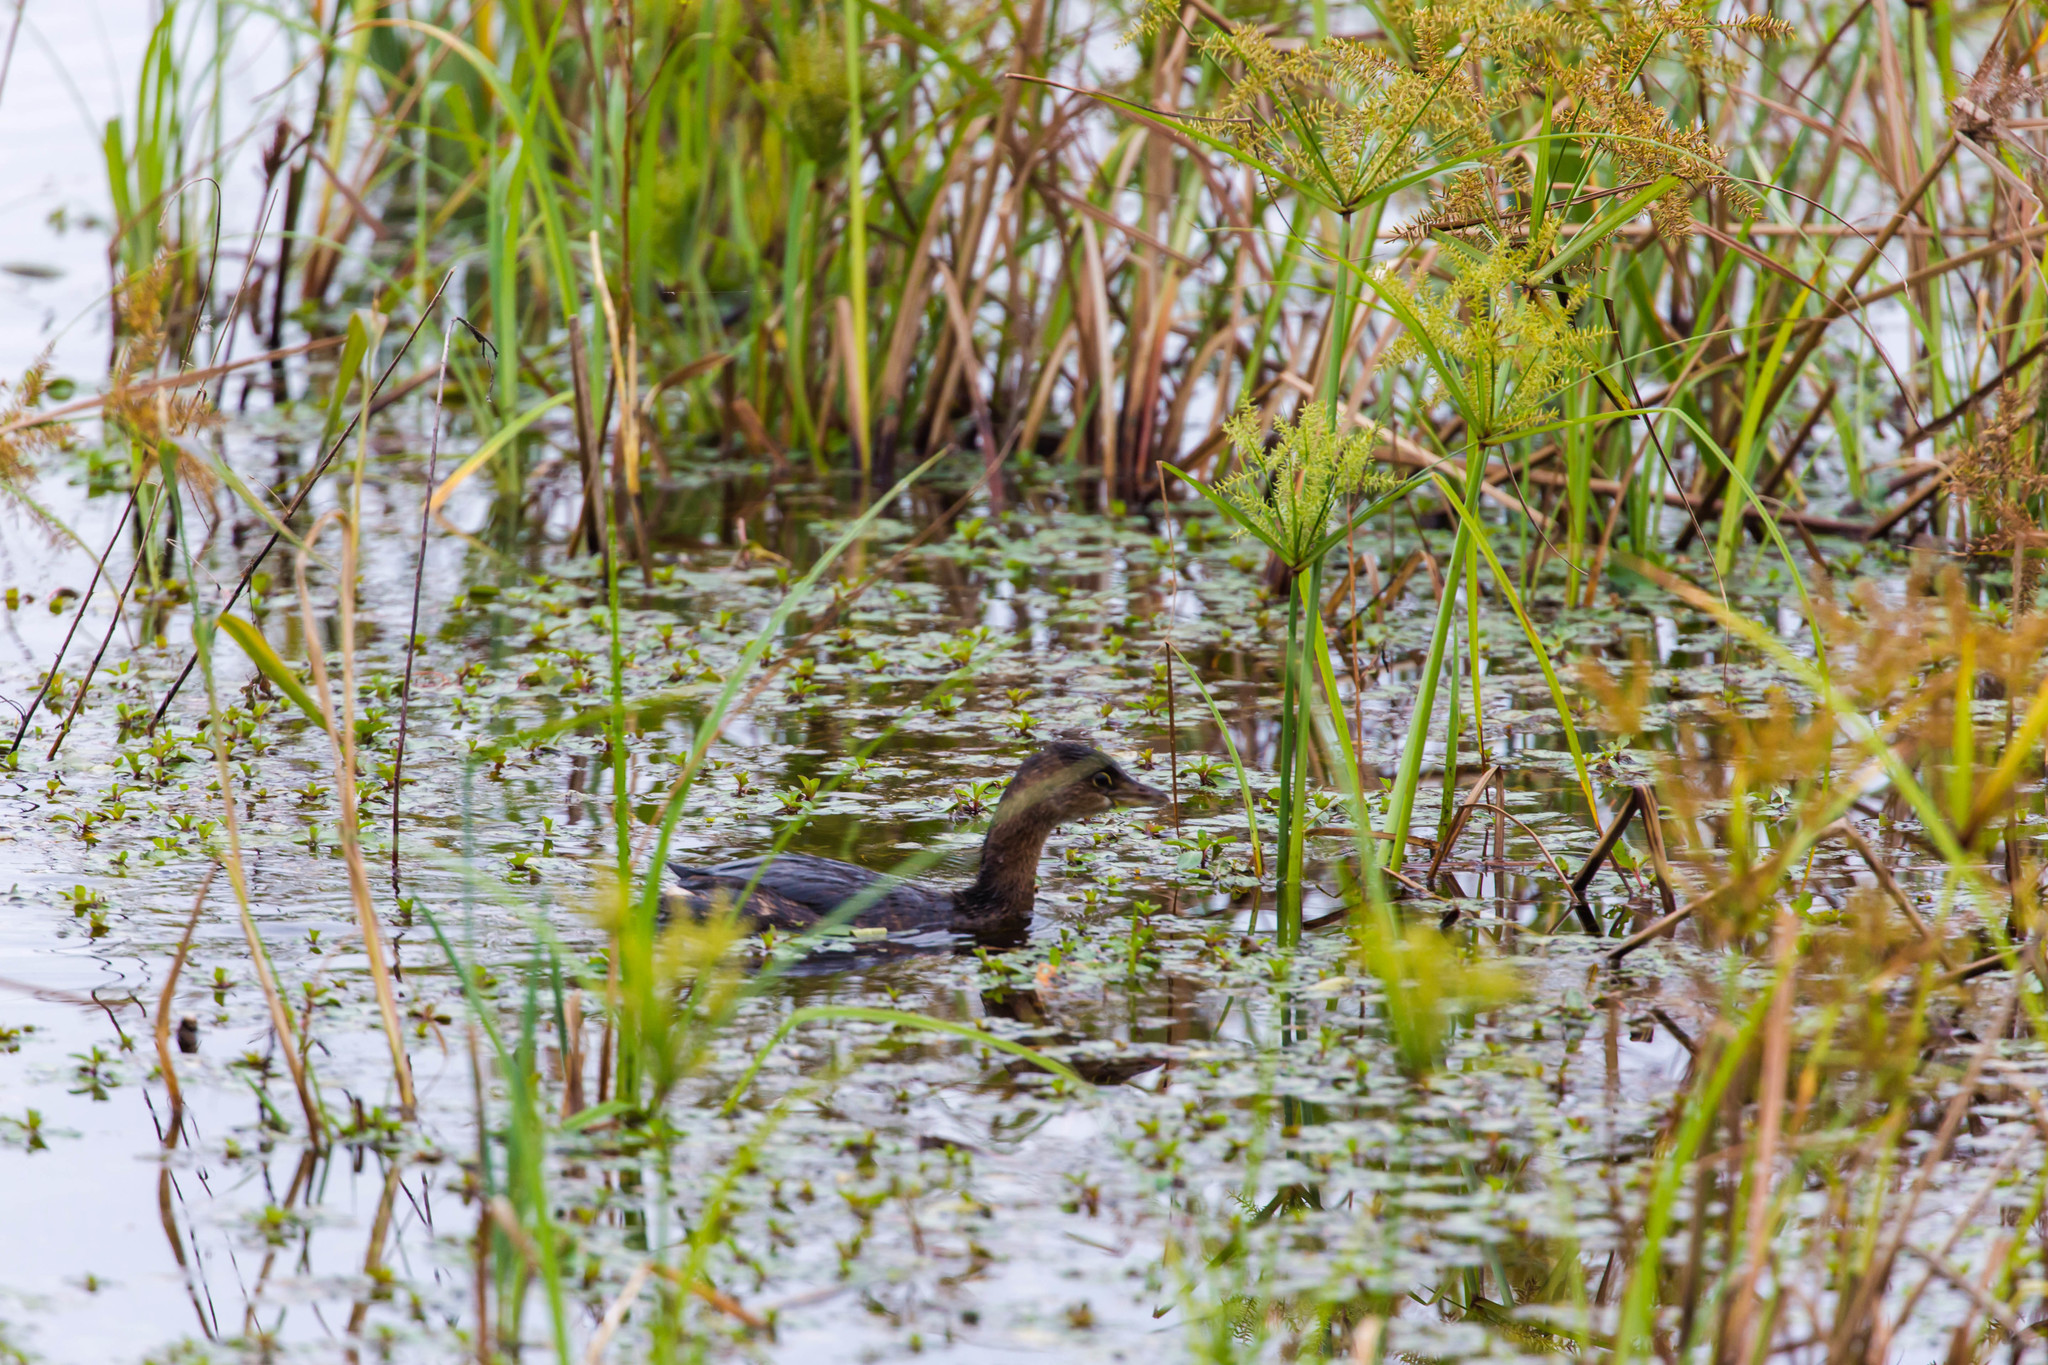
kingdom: Animalia
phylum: Chordata
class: Aves
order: Podicipediformes
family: Podicipedidae
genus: Podilymbus
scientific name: Podilymbus podiceps
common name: Pied-billed grebe
